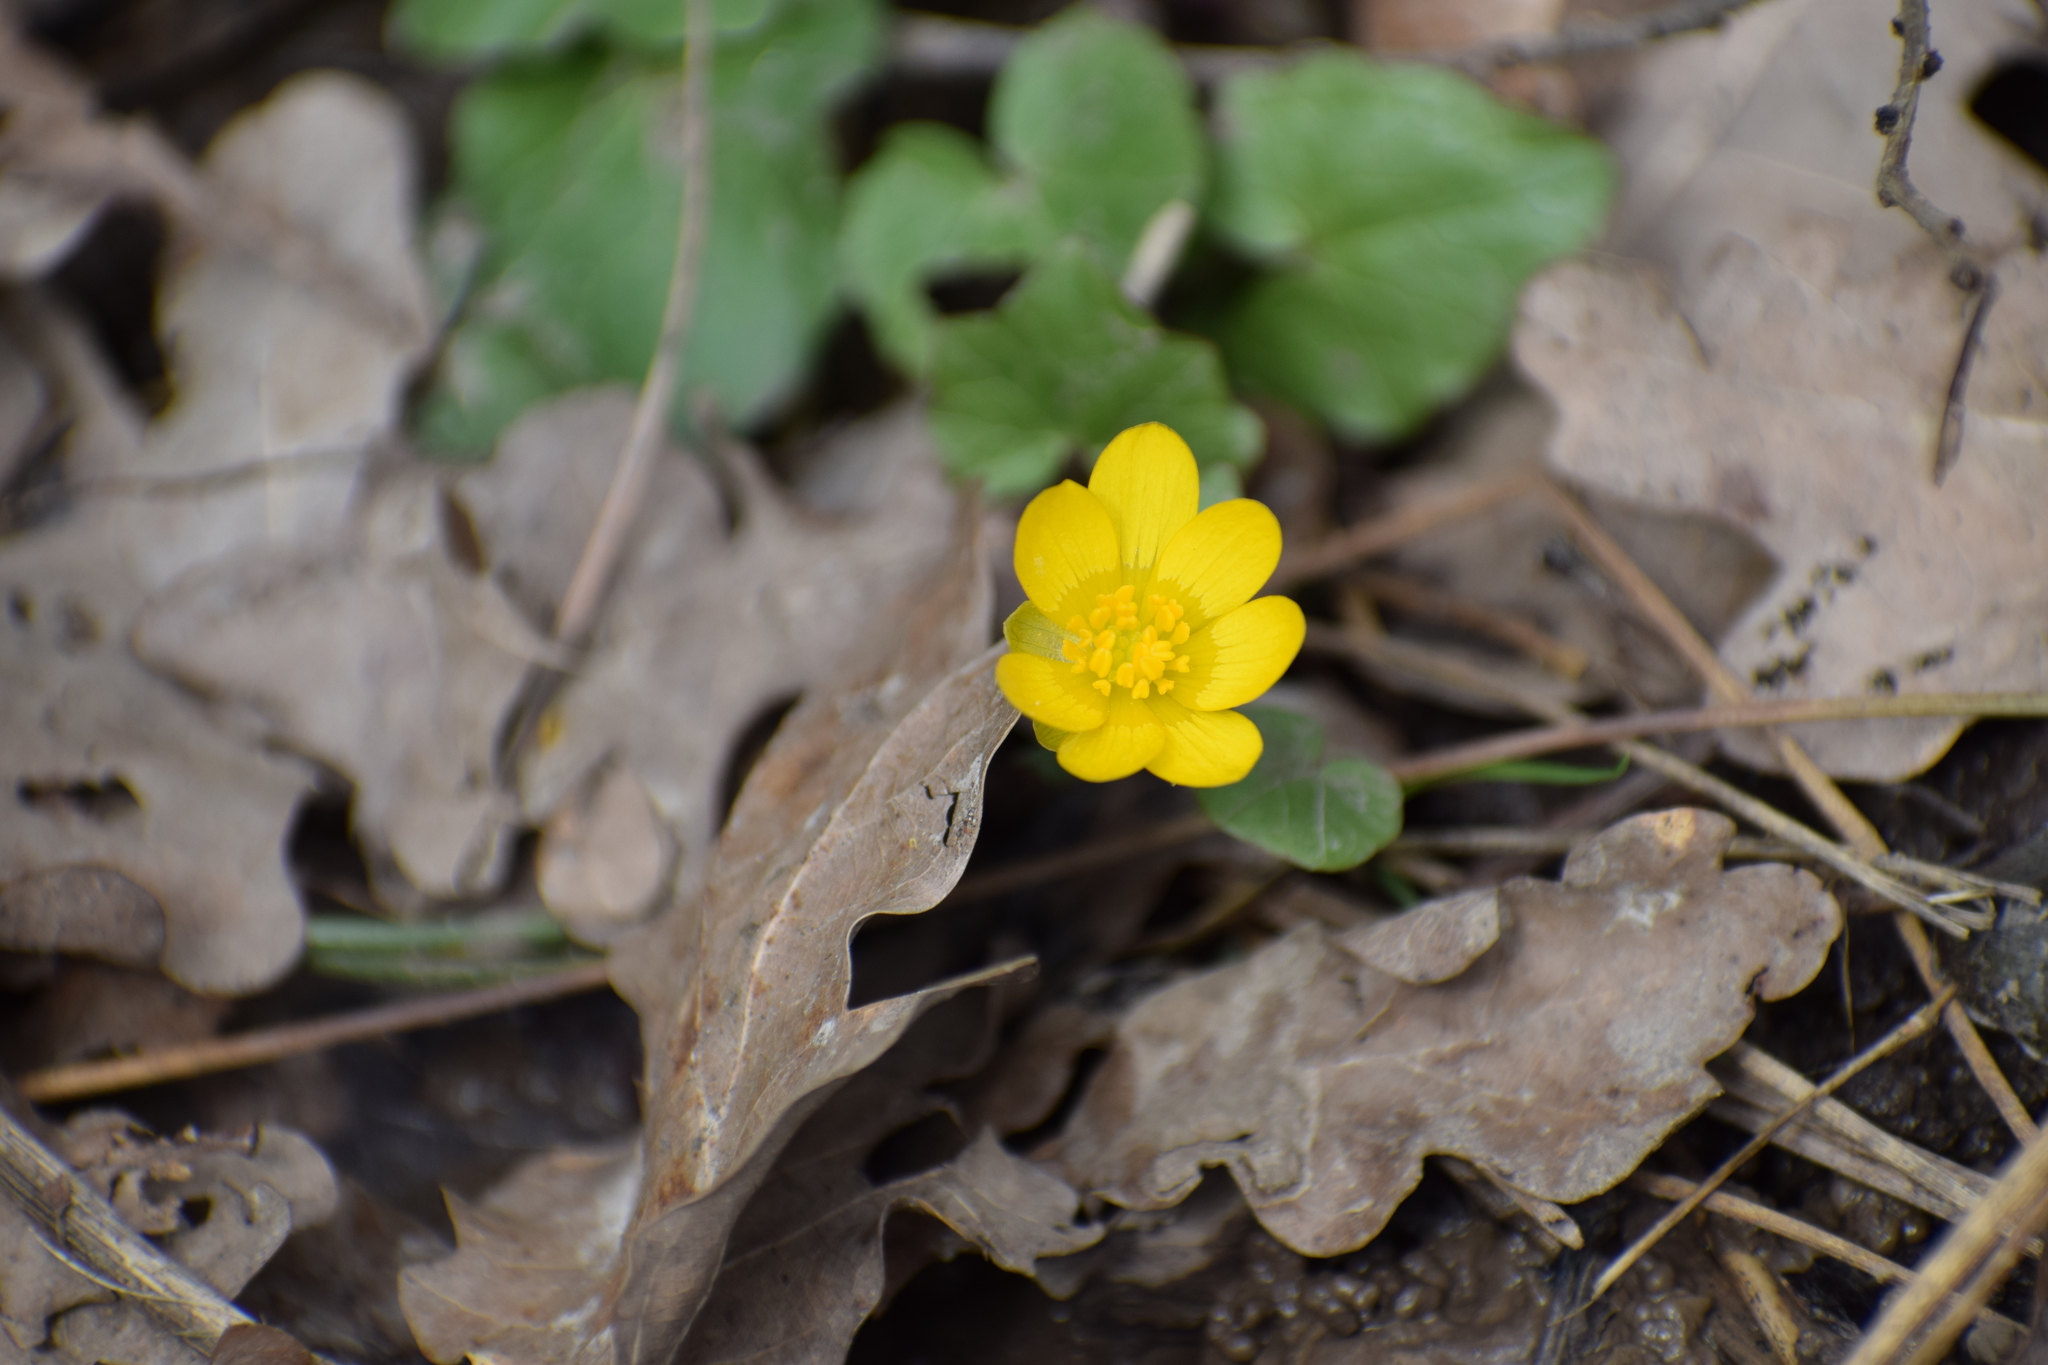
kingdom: Plantae
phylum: Tracheophyta
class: Magnoliopsida
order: Ranunculales
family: Ranunculaceae
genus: Ficaria
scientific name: Ficaria verna
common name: Lesser celandine
